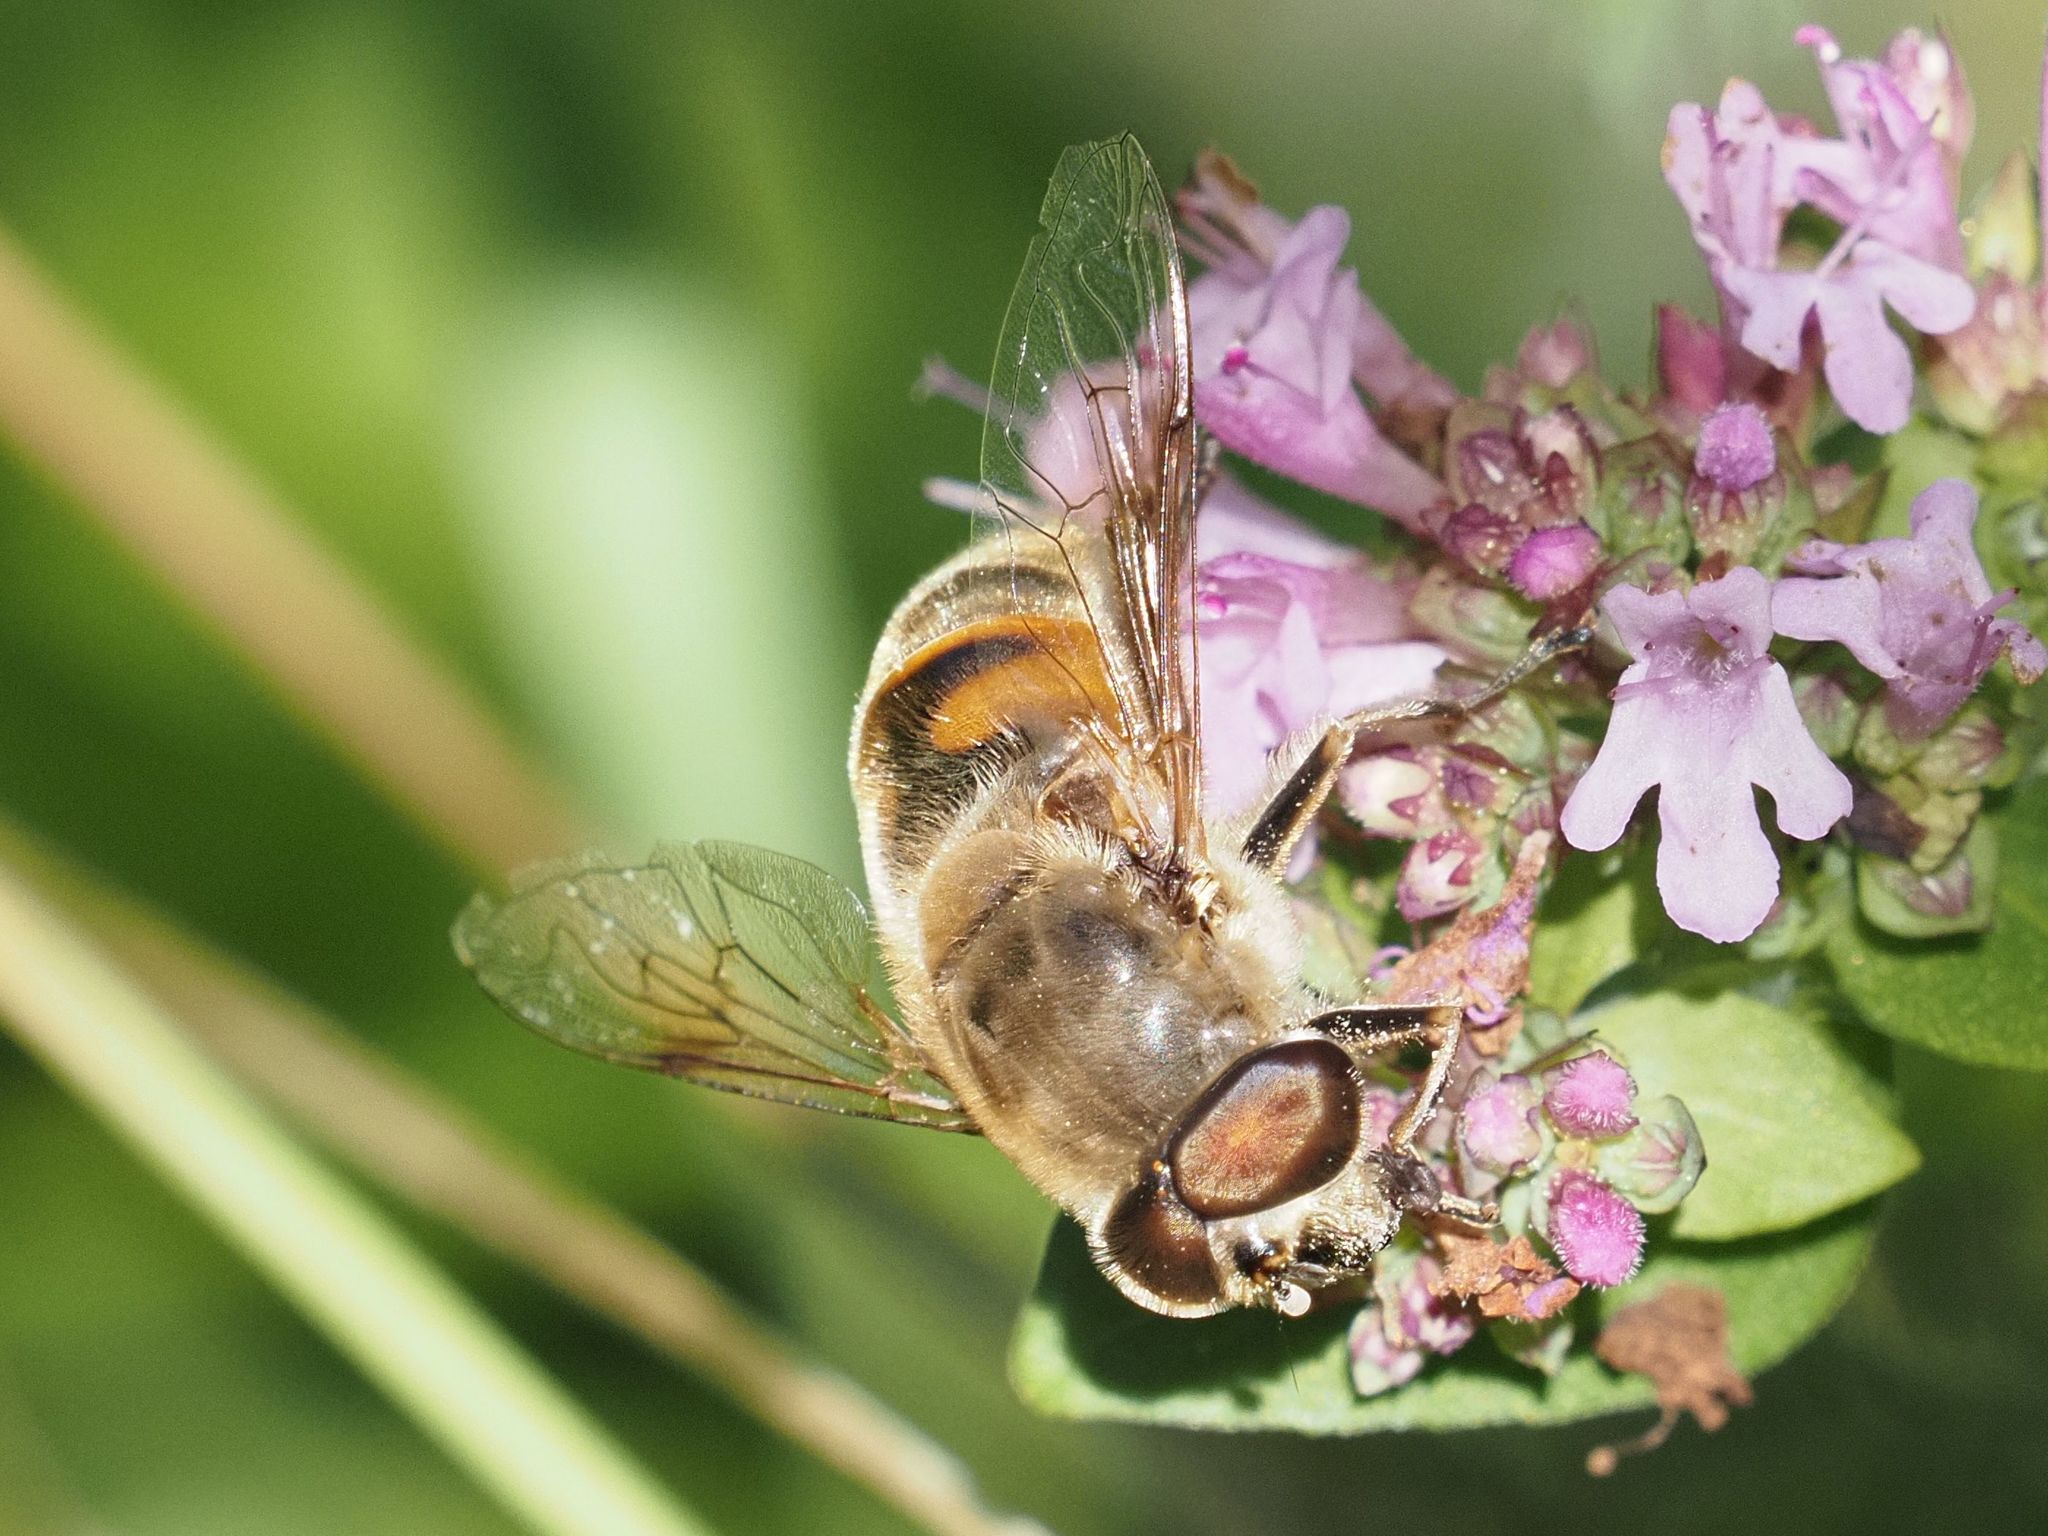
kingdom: Animalia
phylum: Arthropoda
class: Insecta
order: Diptera
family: Syrphidae
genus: Eristalis
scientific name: Eristalis tenax
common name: Drone fly
